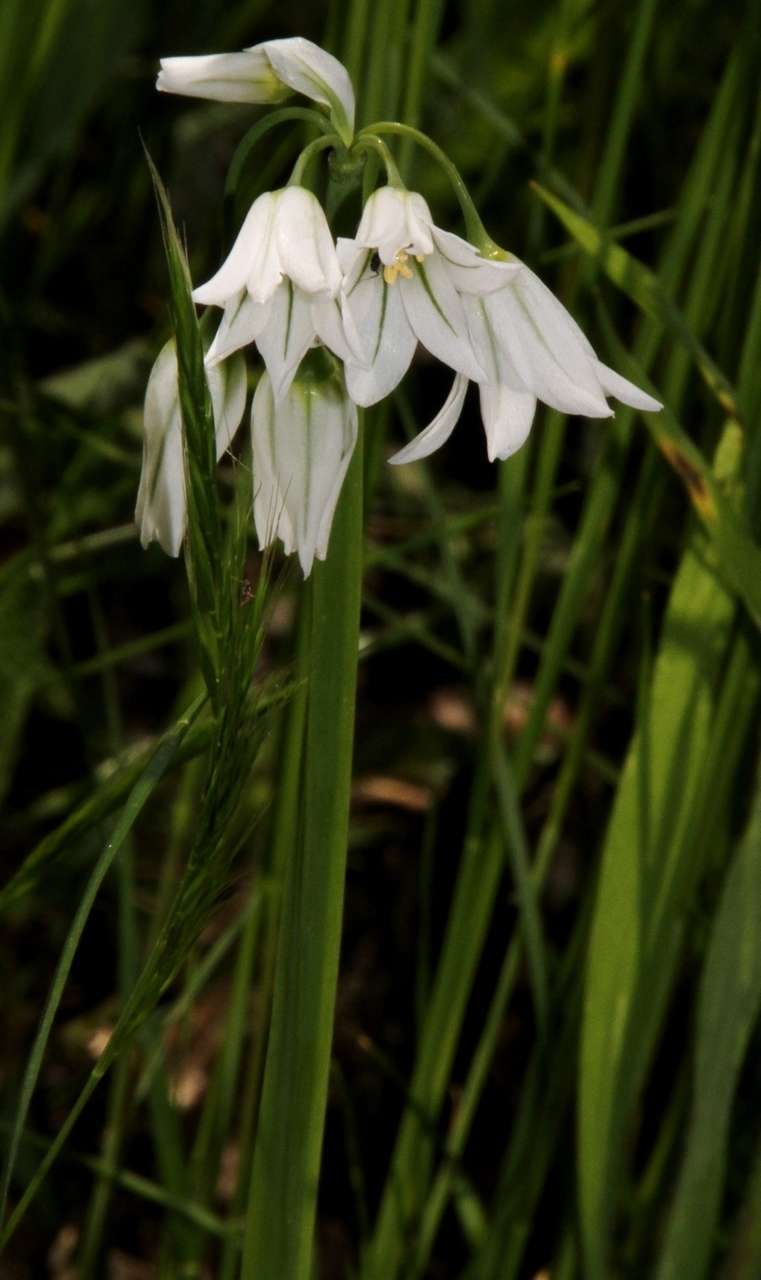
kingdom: Plantae
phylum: Tracheophyta
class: Liliopsida
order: Asparagales
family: Amaryllidaceae
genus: Allium
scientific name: Allium triquetrum
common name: Three-cornered garlic
